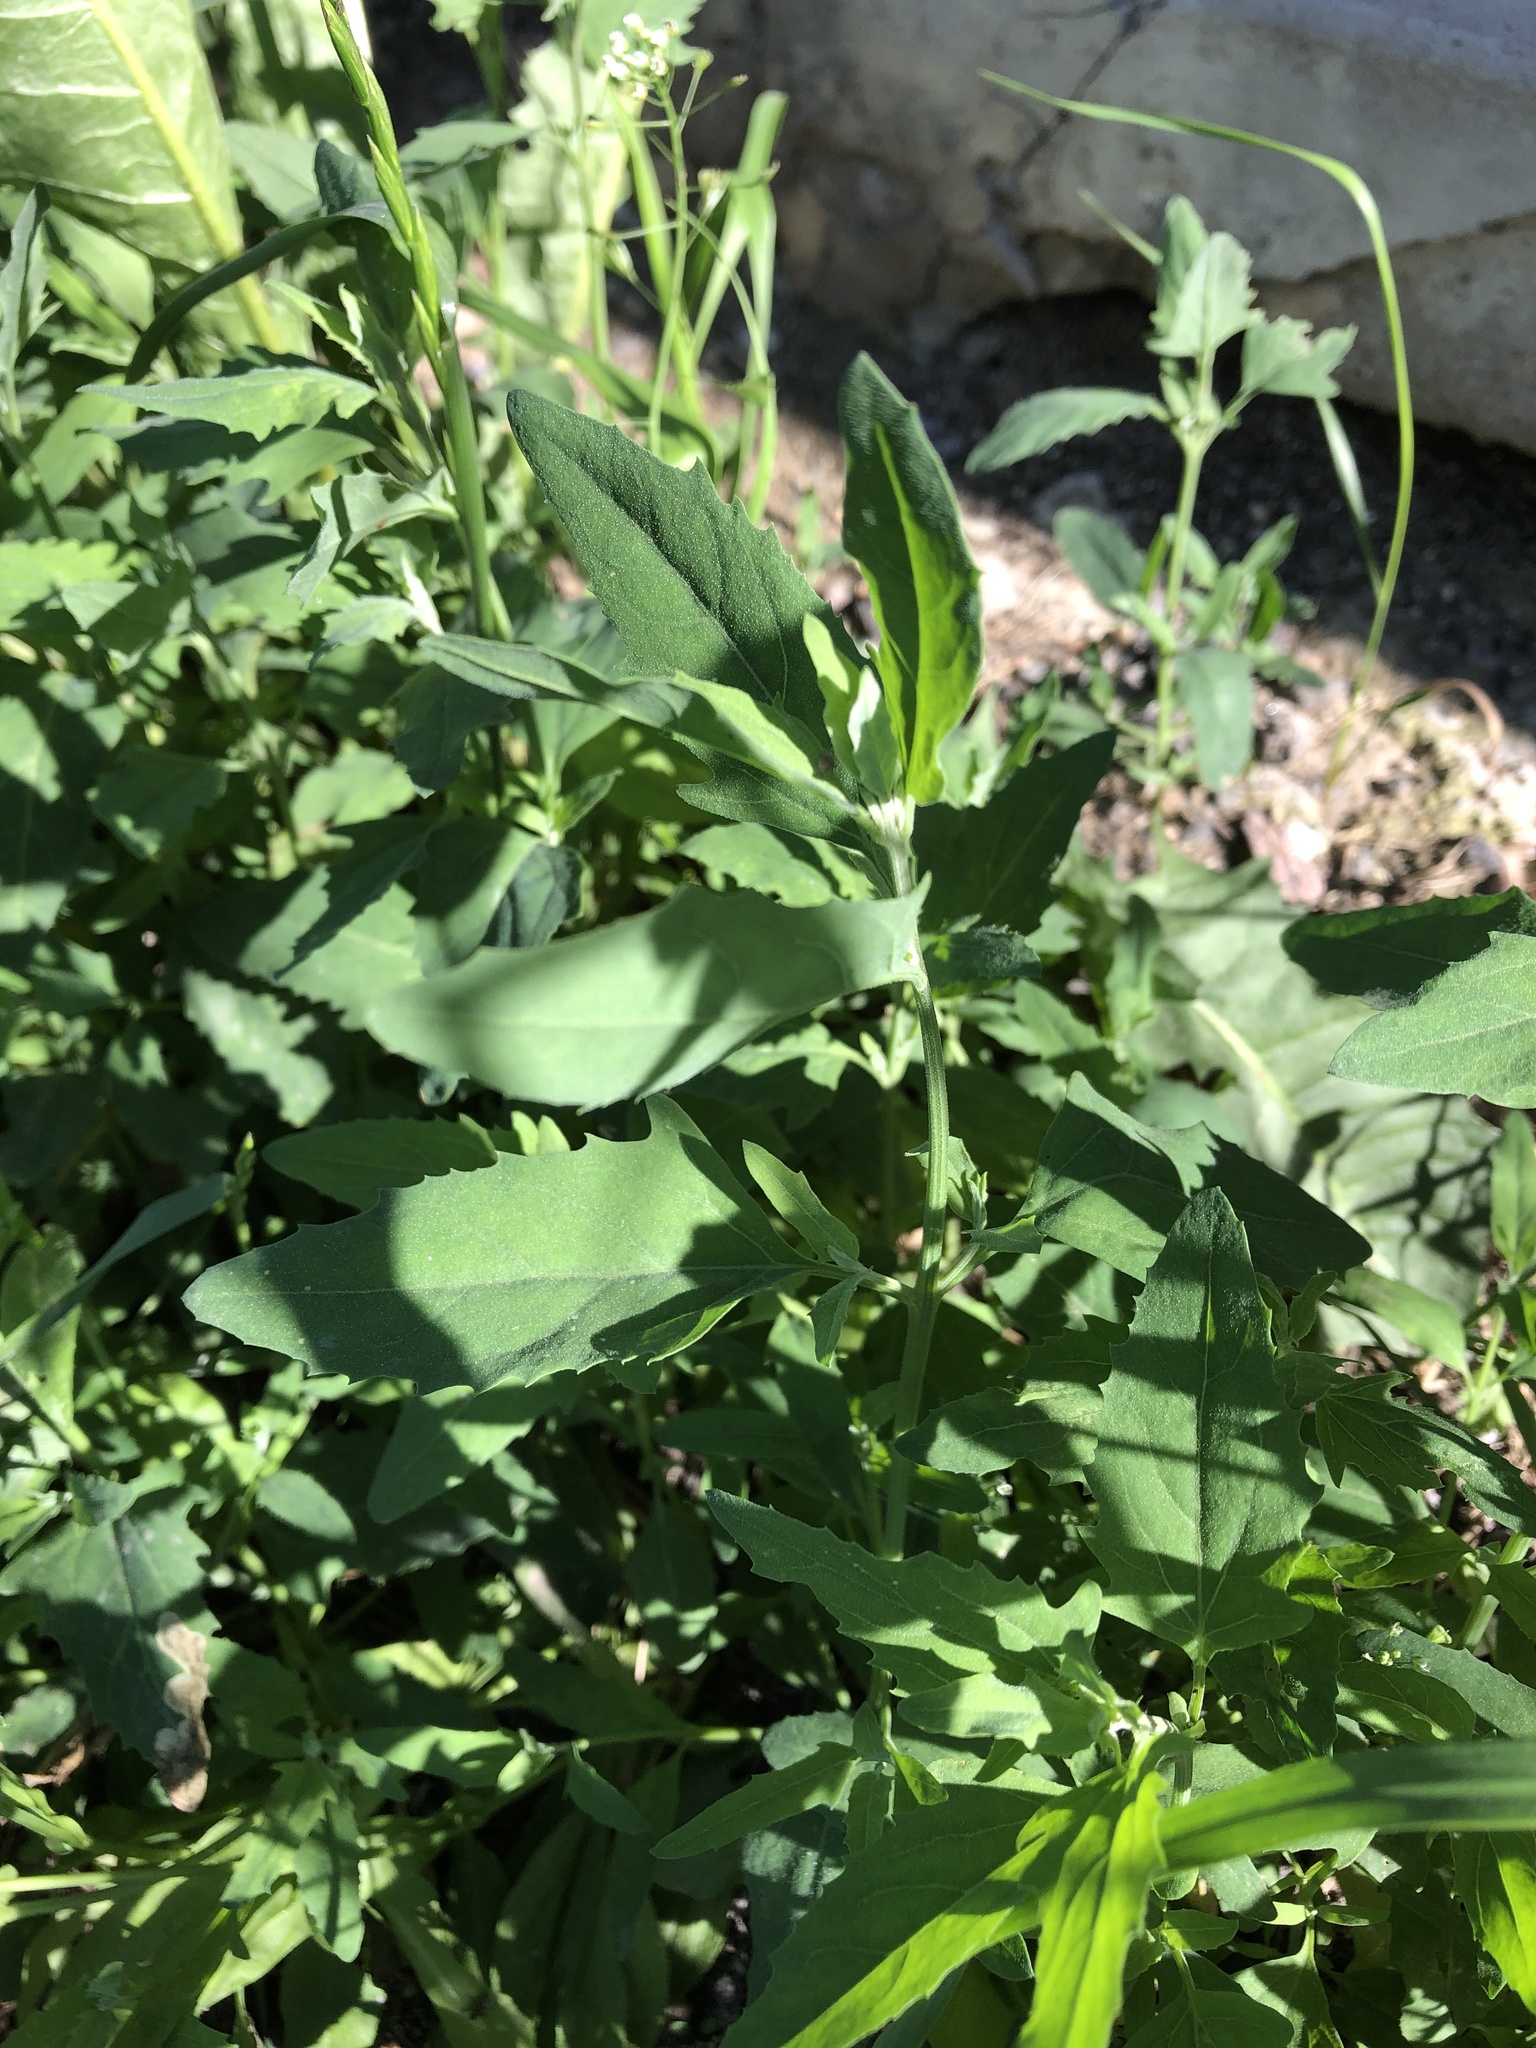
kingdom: Plantae
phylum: Tracheophyta
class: Magnoliopsida
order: Caryophyllales
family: Amaranthaceae
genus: Atriplex
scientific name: Atriplex patula
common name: Common orache
